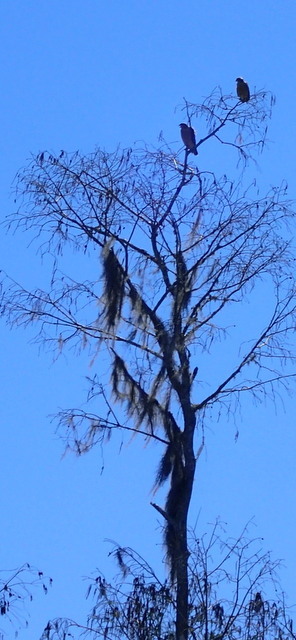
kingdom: Animalia
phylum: Chordata
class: Aves
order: Accipitriformes
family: Pandionidae
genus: Pandion
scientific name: Pandion haliaetus
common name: Osprey
